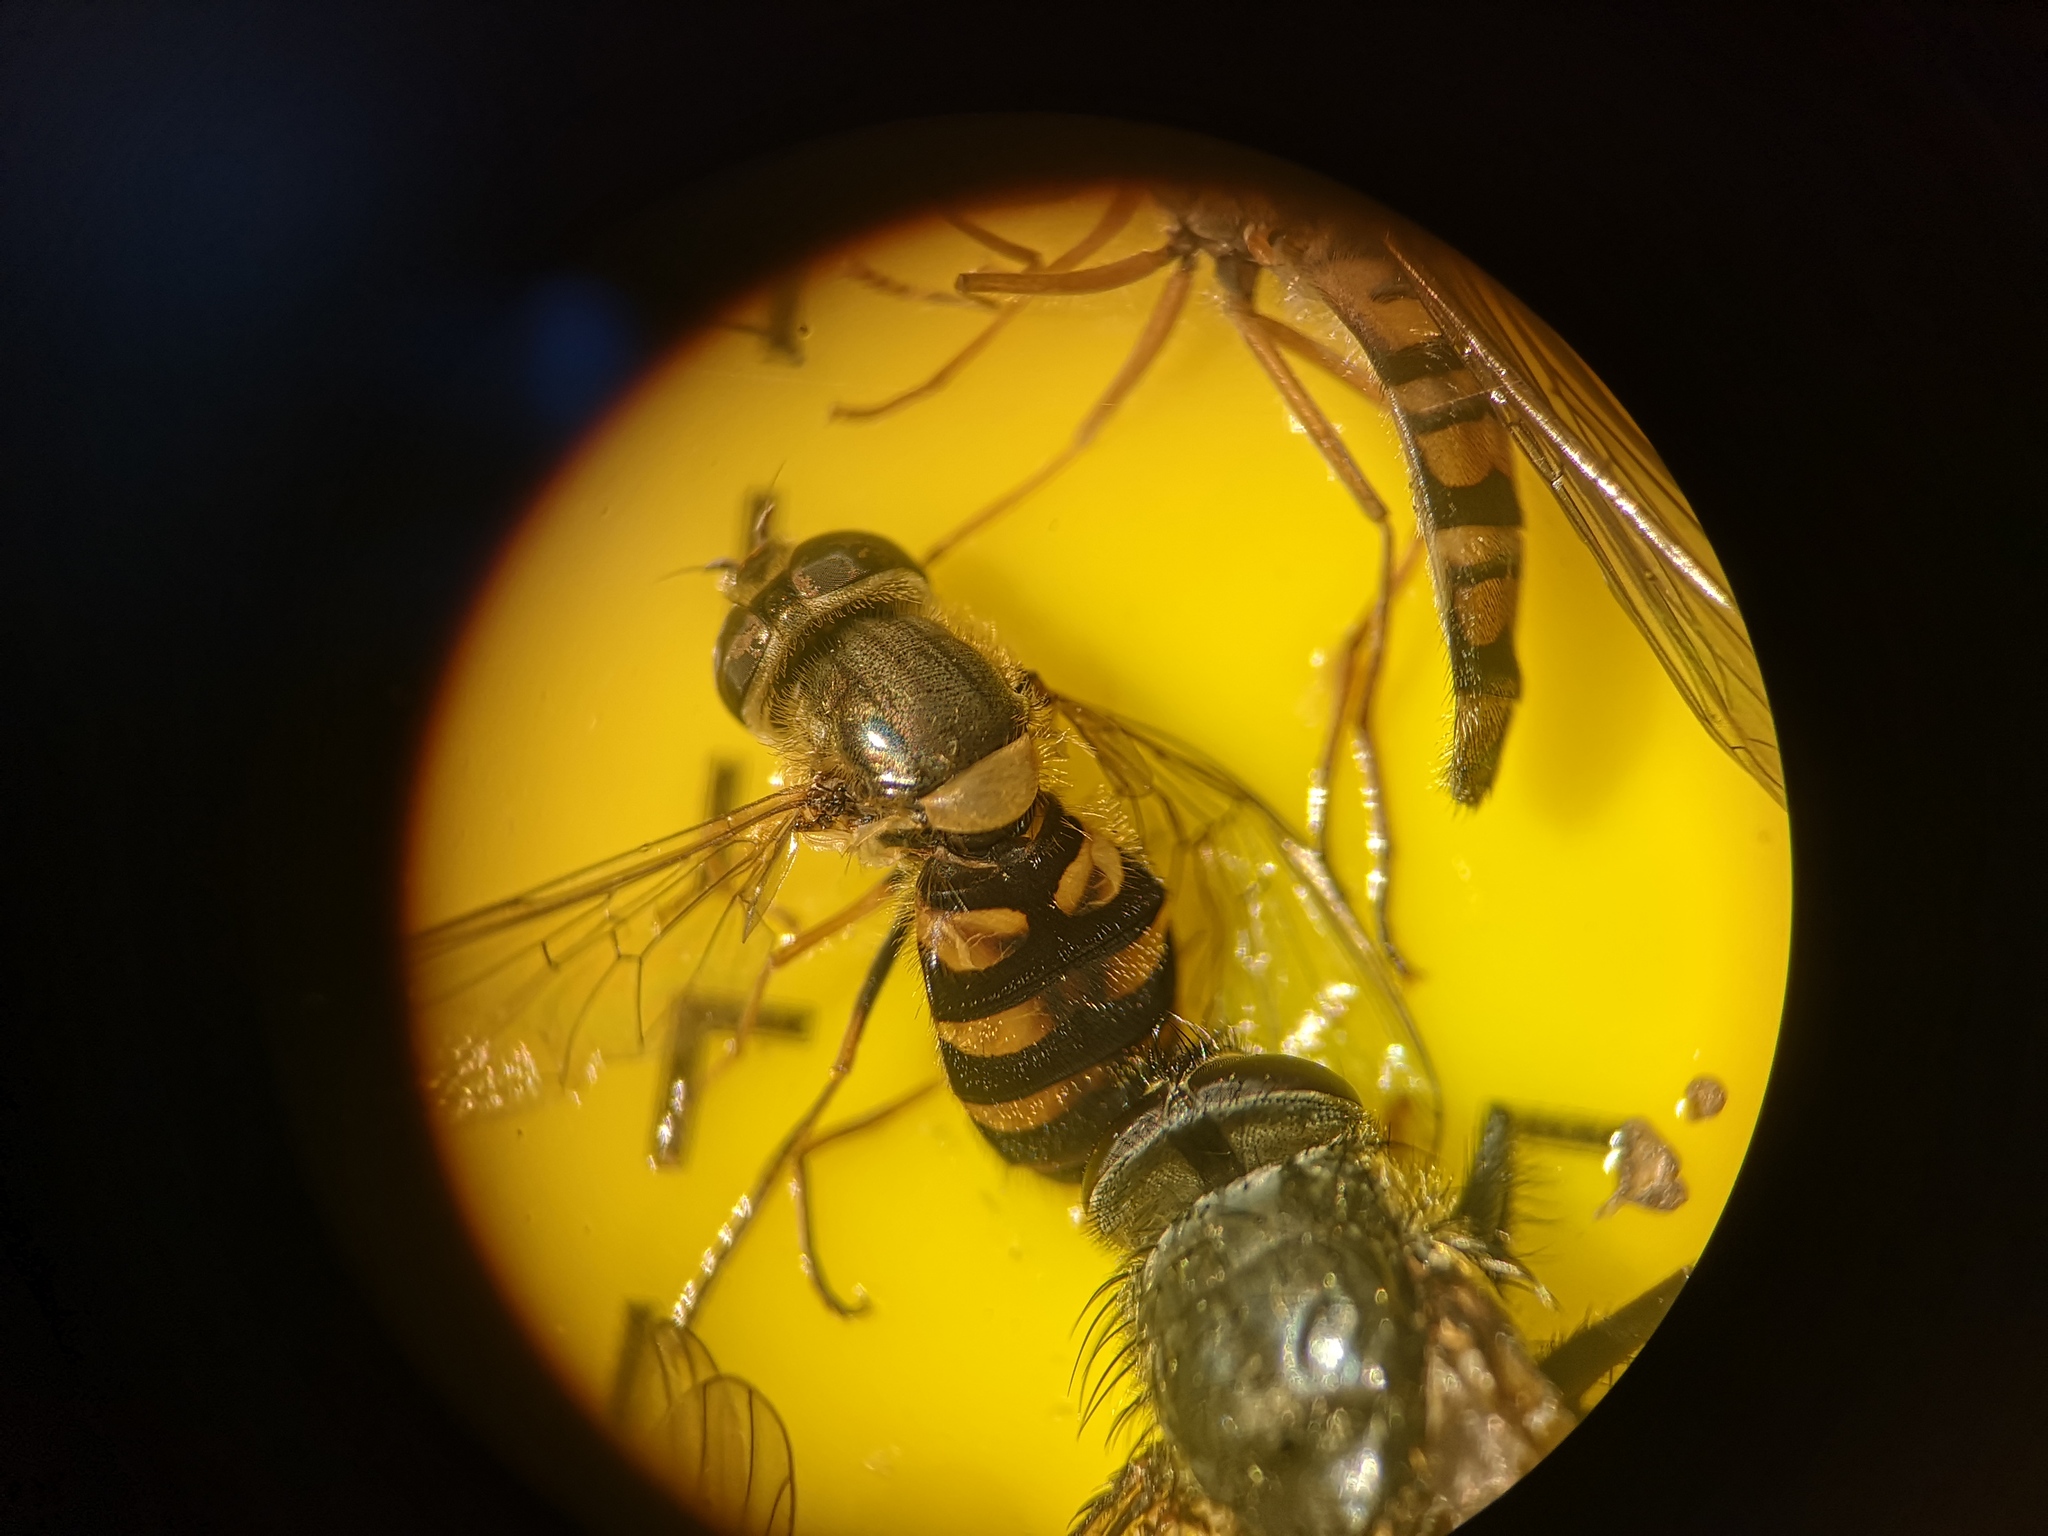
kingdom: Animalia
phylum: Arthropoda
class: Insecta
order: Diptera
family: Syrphidae
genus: Syrphus
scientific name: Syrphus
